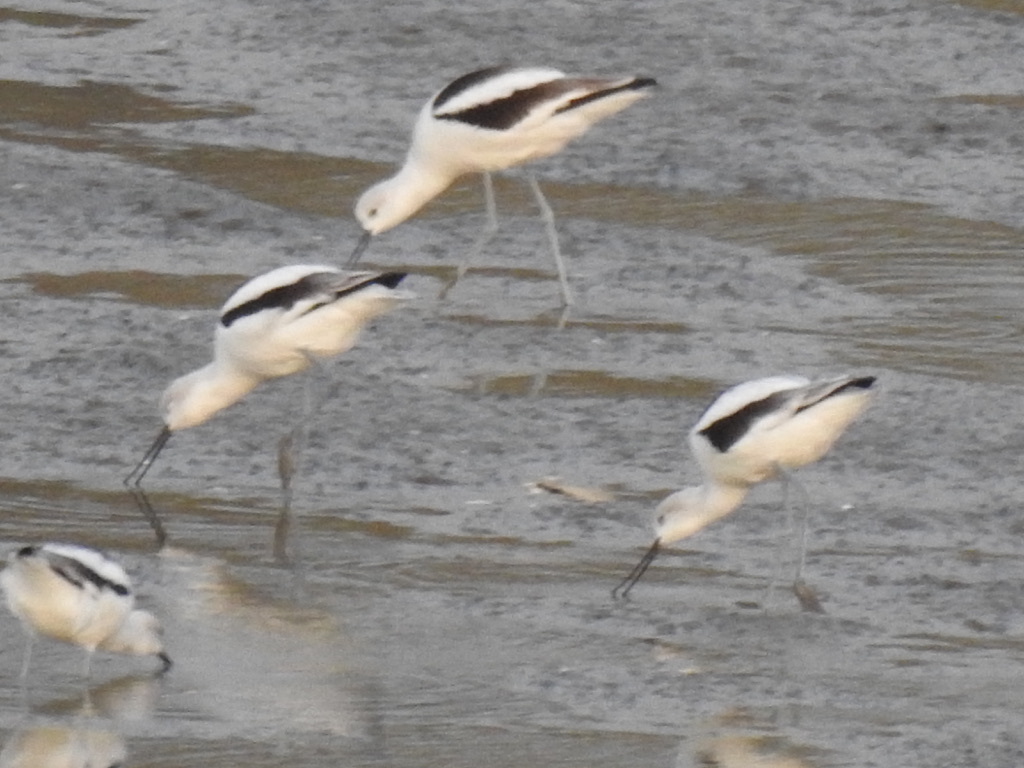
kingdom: Animalia
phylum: Chordata
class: Aves
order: Charadriiformes
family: Recurvirostridae
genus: Recurvirostra
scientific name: Recurvirostra americana
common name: American avocet
